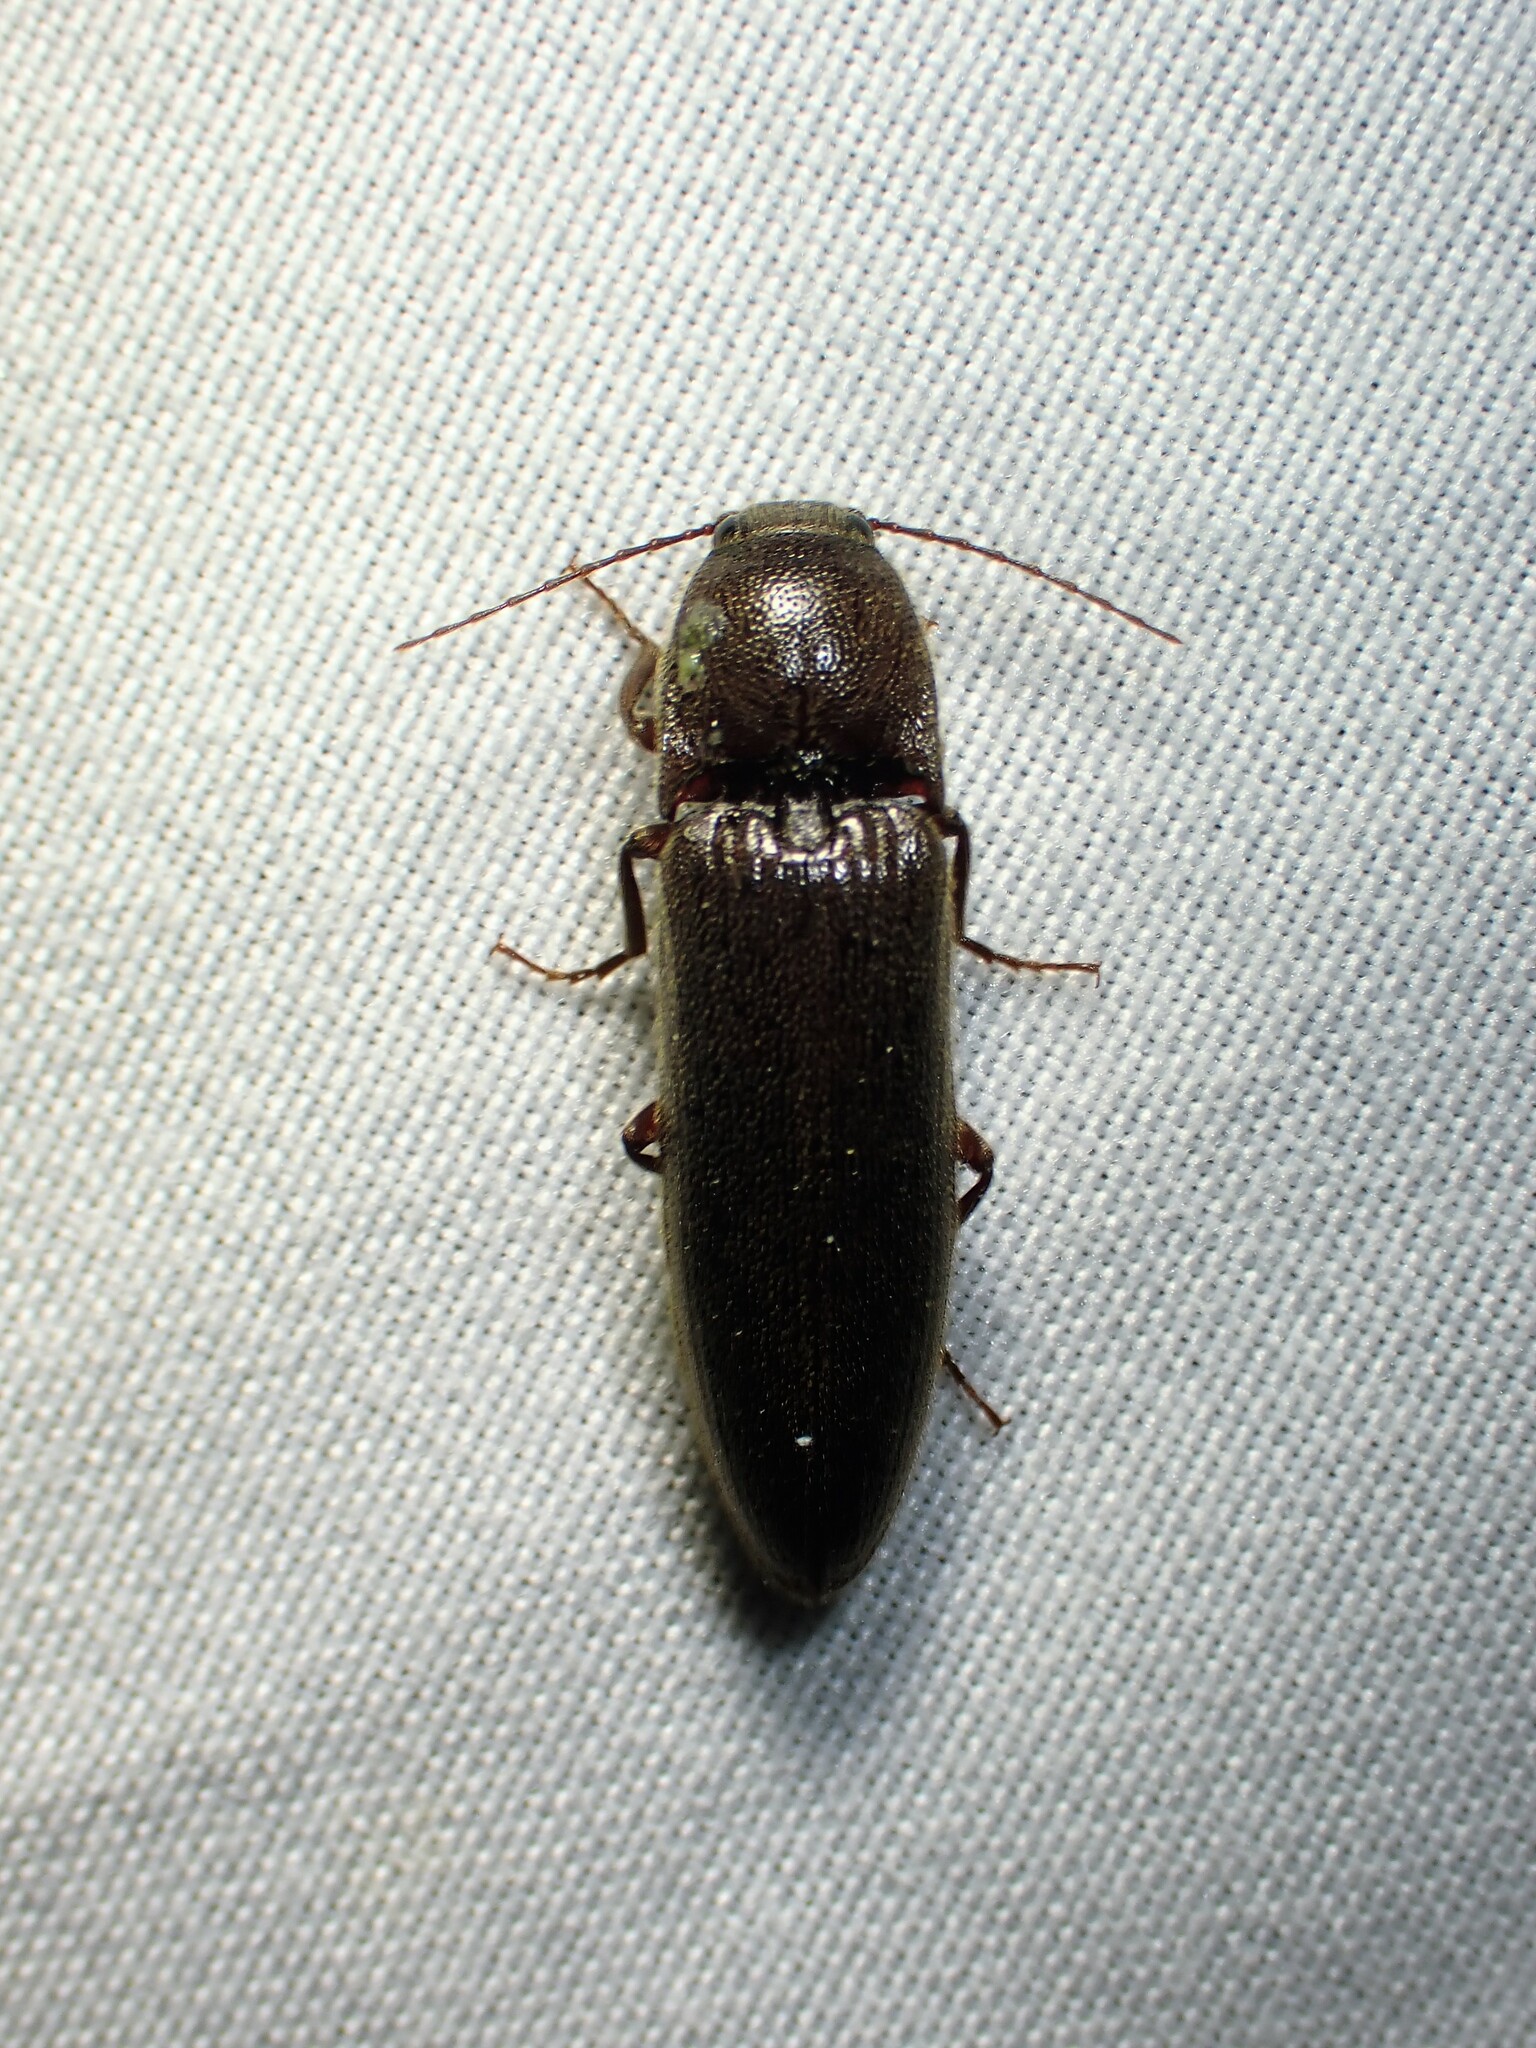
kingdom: Animalia
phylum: Arthropoda
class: Insecta
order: Coleoptera
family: Elateridae
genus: Melanotus
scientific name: Melanotus castanipes
